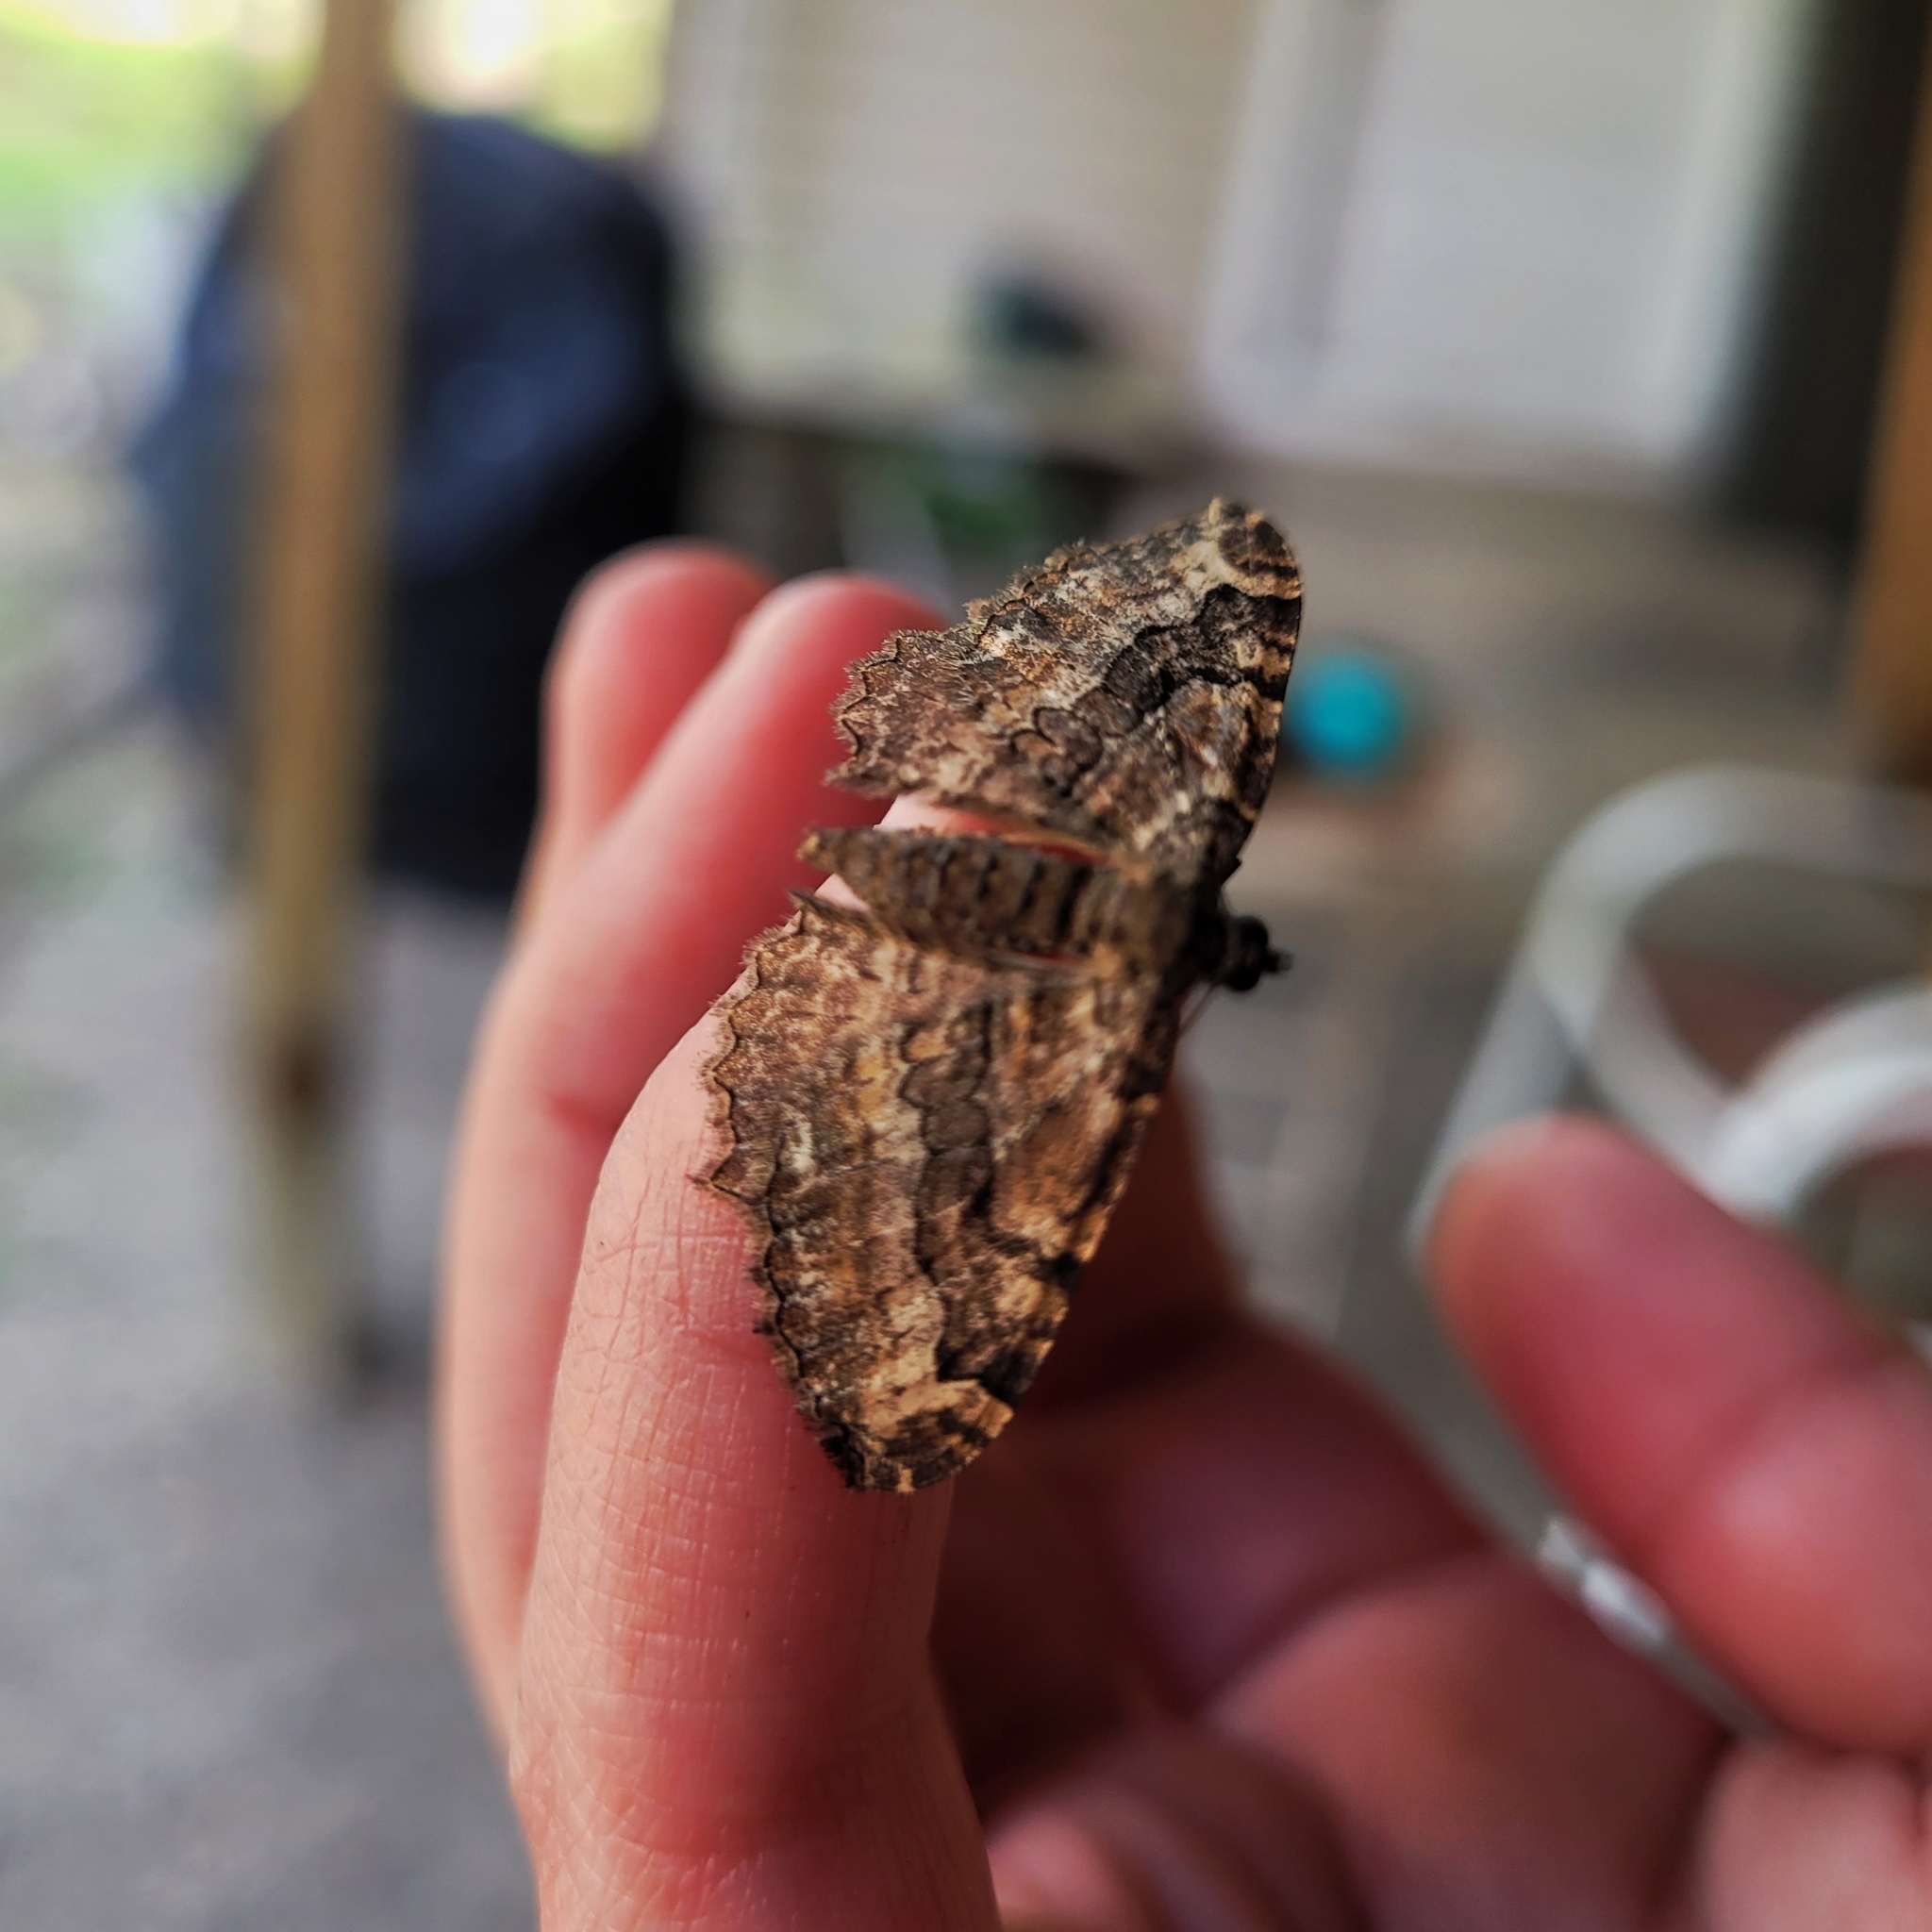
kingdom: Animalia
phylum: Arthropoda
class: Insecta
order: Lepidoptera
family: Geometridae
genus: Rheumaptera
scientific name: Rheumaptera
